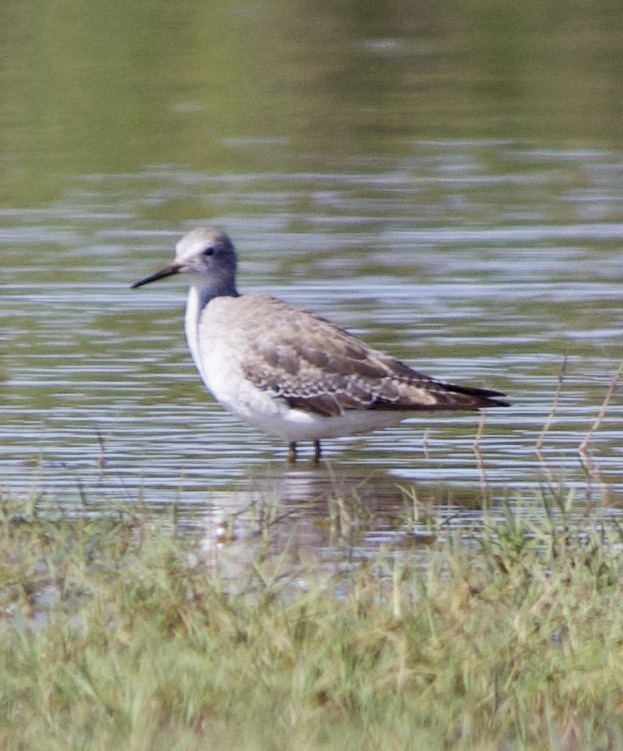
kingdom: Animalia
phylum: Chordata
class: Aves
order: Charadriiformes
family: Scolopacidae
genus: Tringa
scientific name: Tringa flavipes
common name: Lesser yellowlegs
